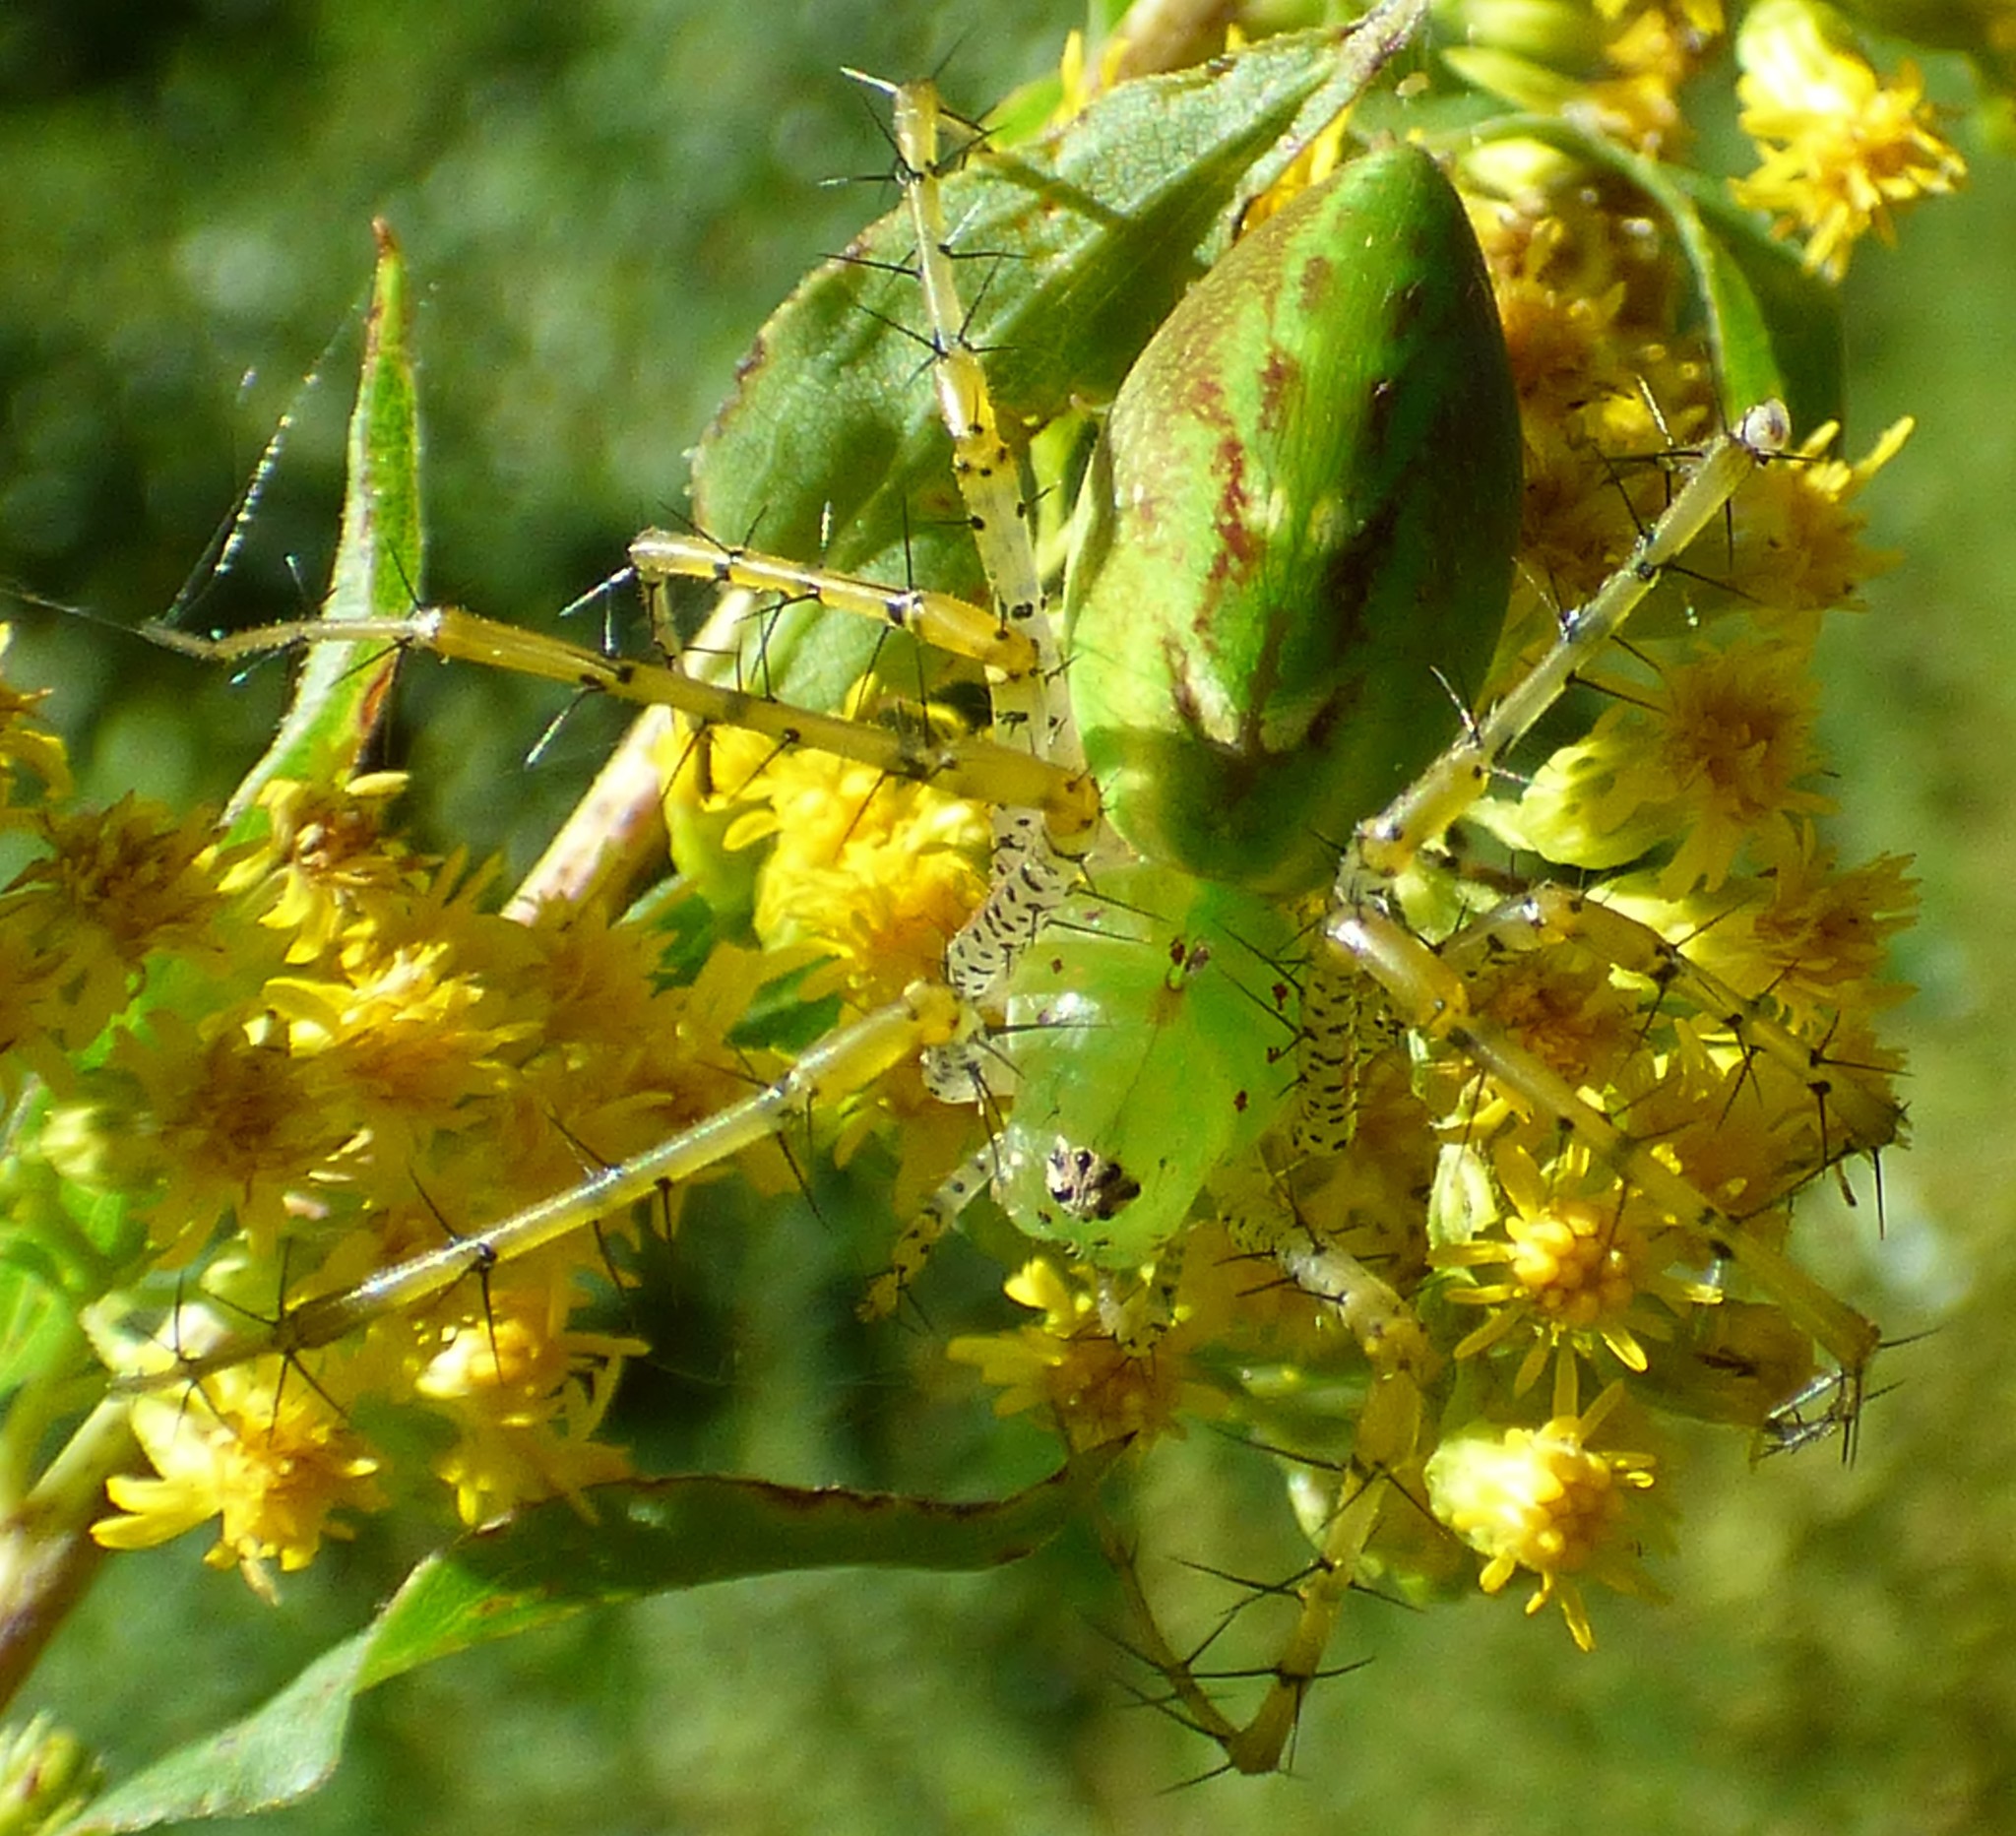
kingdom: Animalia
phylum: Arthropoda
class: Arachnida
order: Araneae
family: Oxyopidae
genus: Peucetia
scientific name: Peucetia viridans
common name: Lynx spiders
